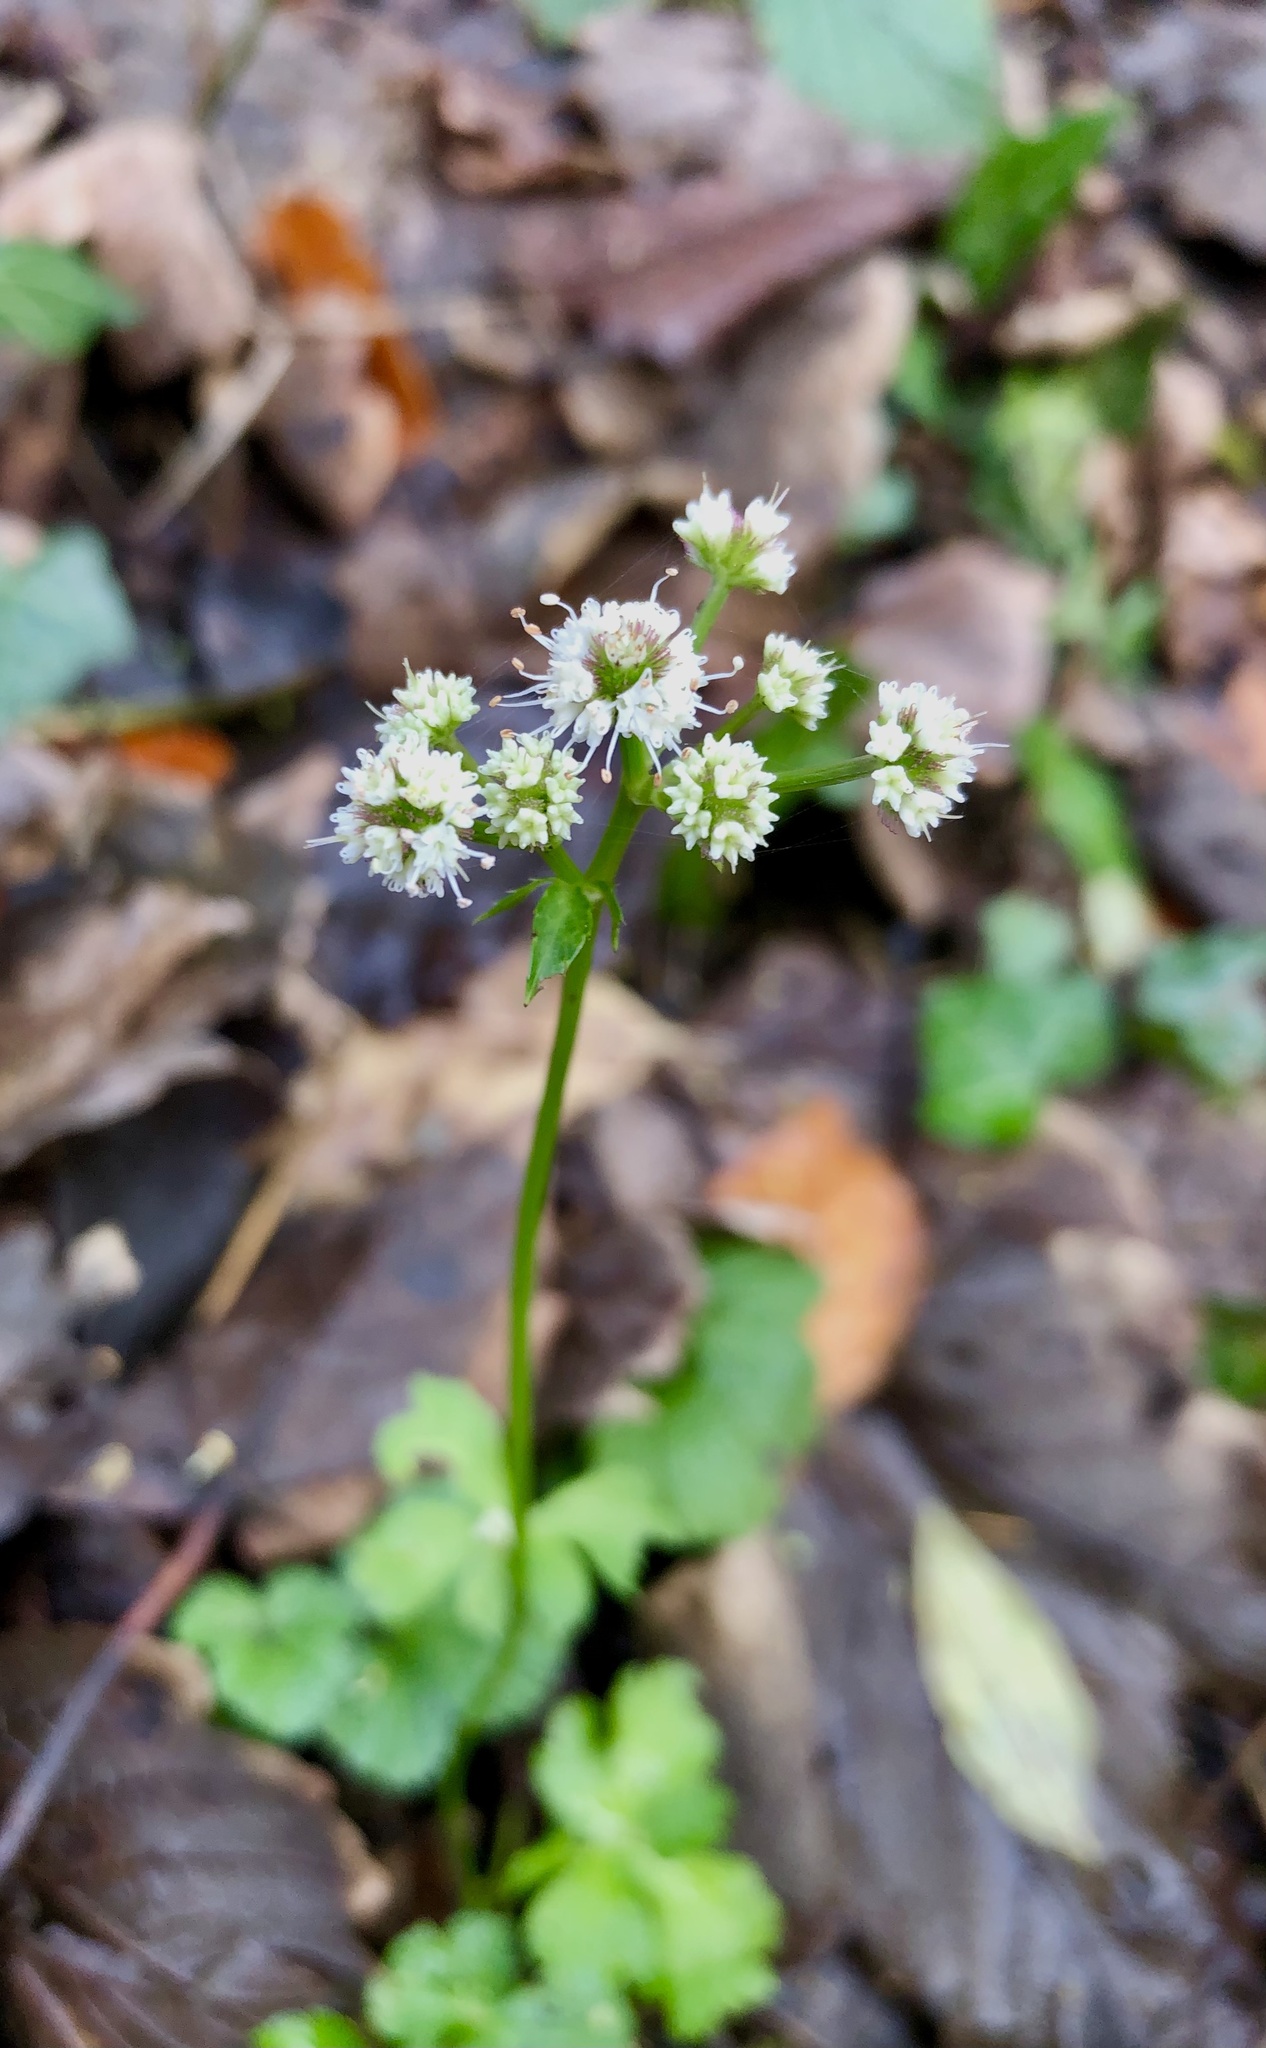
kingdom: Plantae
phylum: Tracheophyta
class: Magnoliopsida
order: Apiales
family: Apiaceae
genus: Sanicula
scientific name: Sanicula europaea
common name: Sanicle
